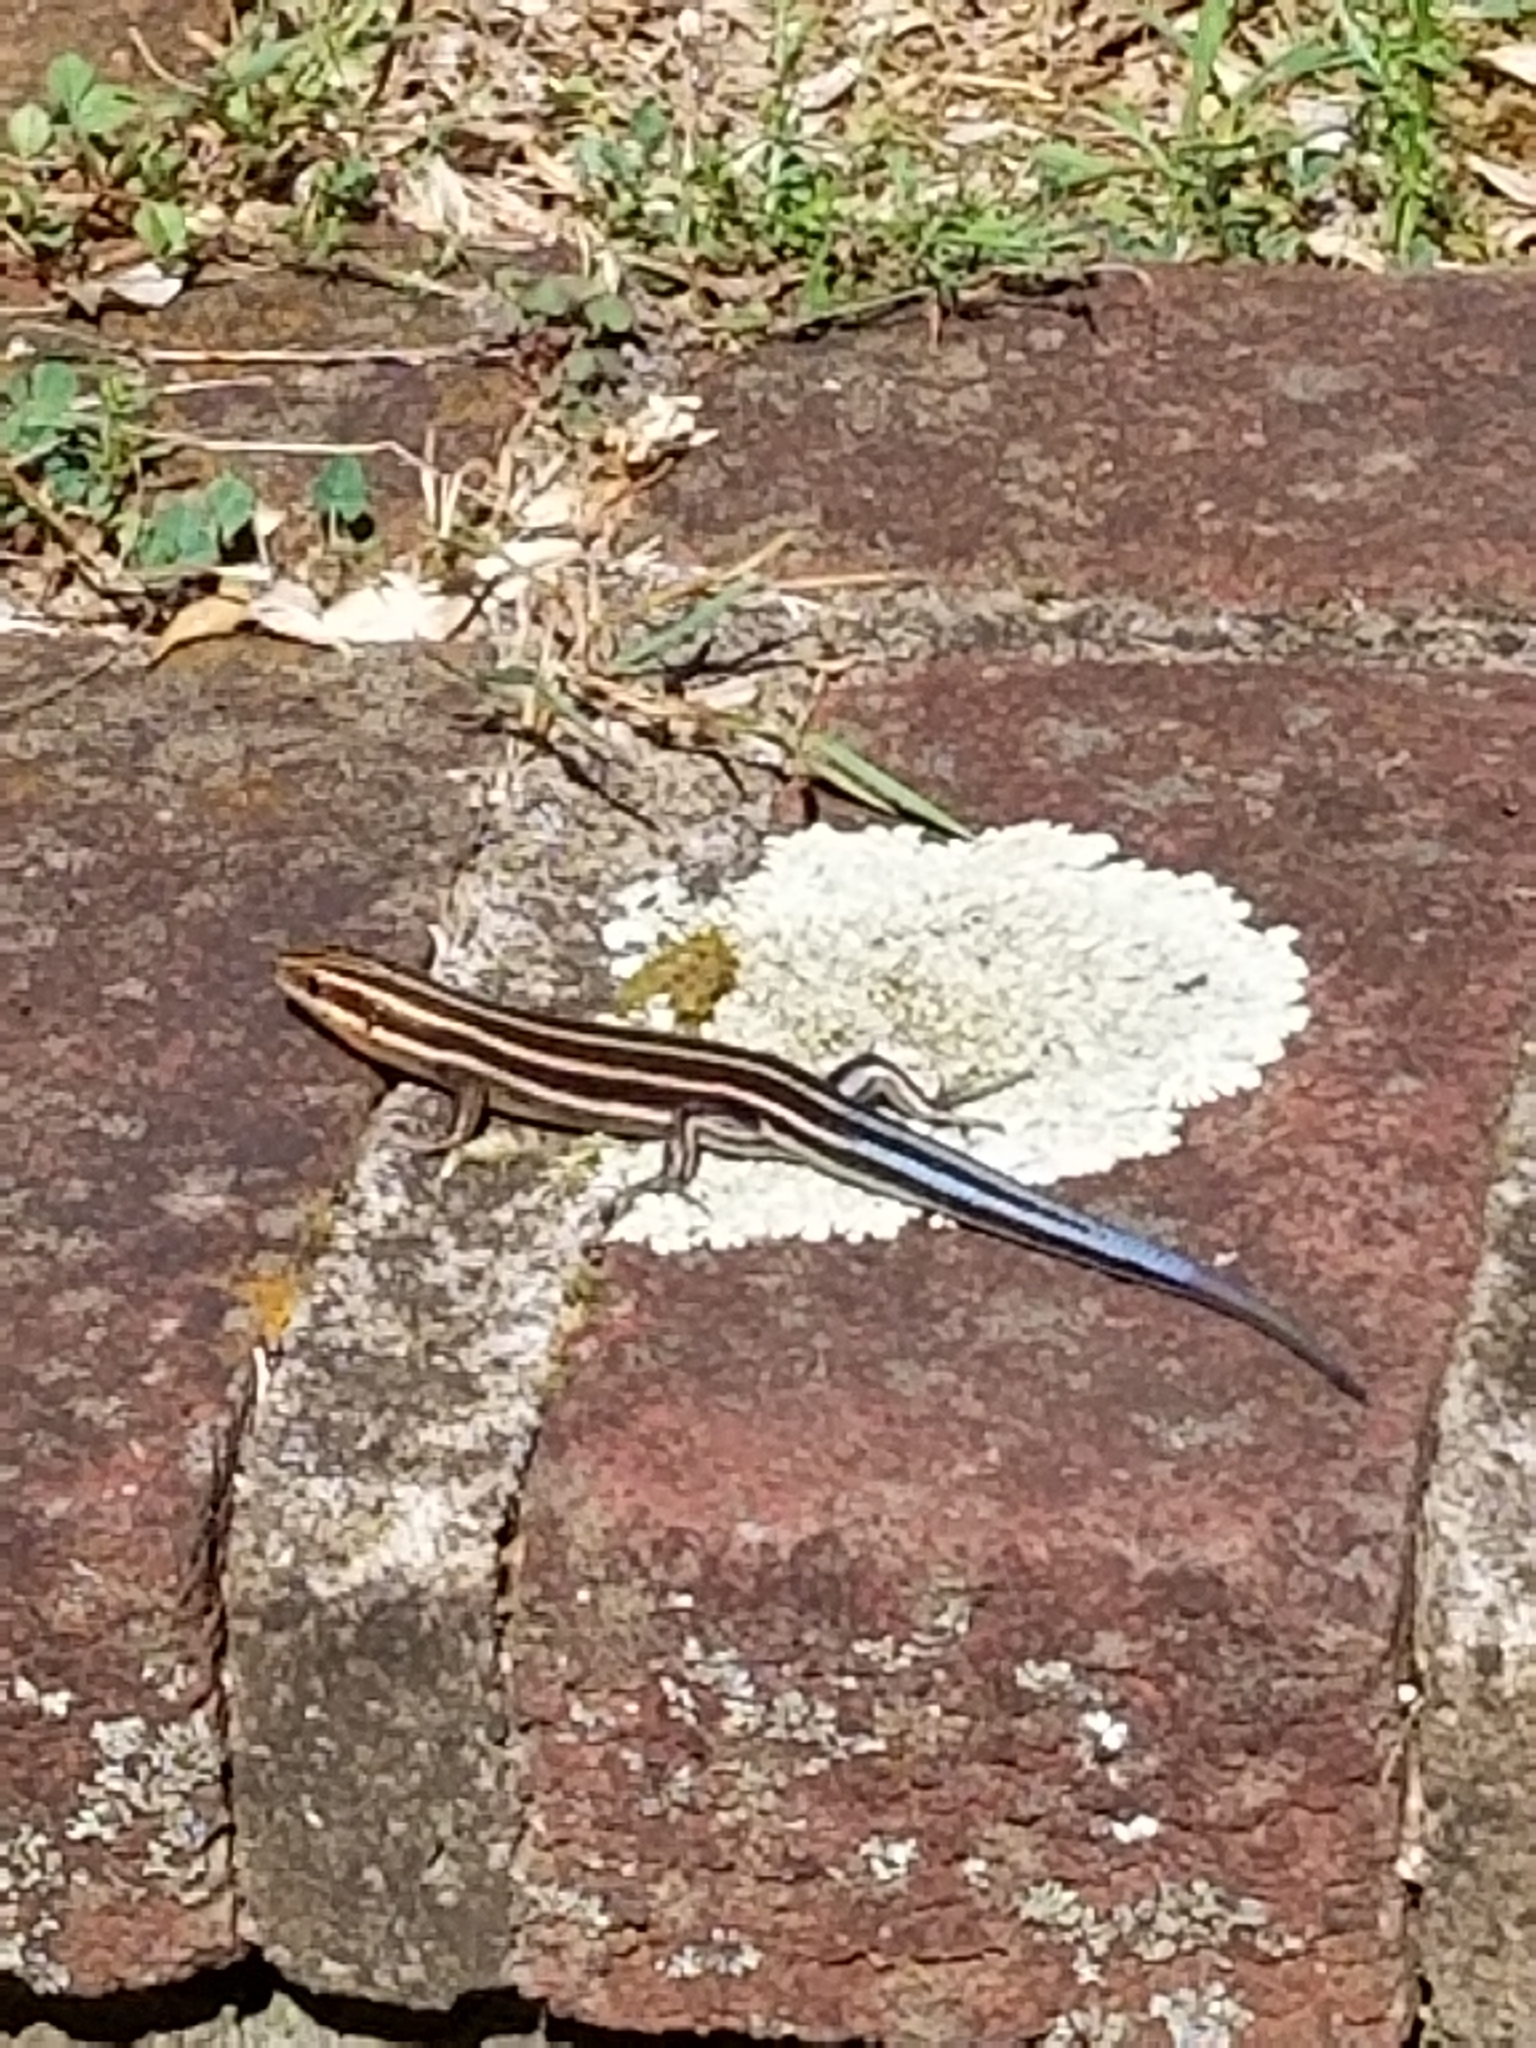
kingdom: Animalia
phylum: Chordata
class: Squamata
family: Scincidae
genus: Plestiodon
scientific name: Plestiodon fasciatus
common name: Five-lined skink
